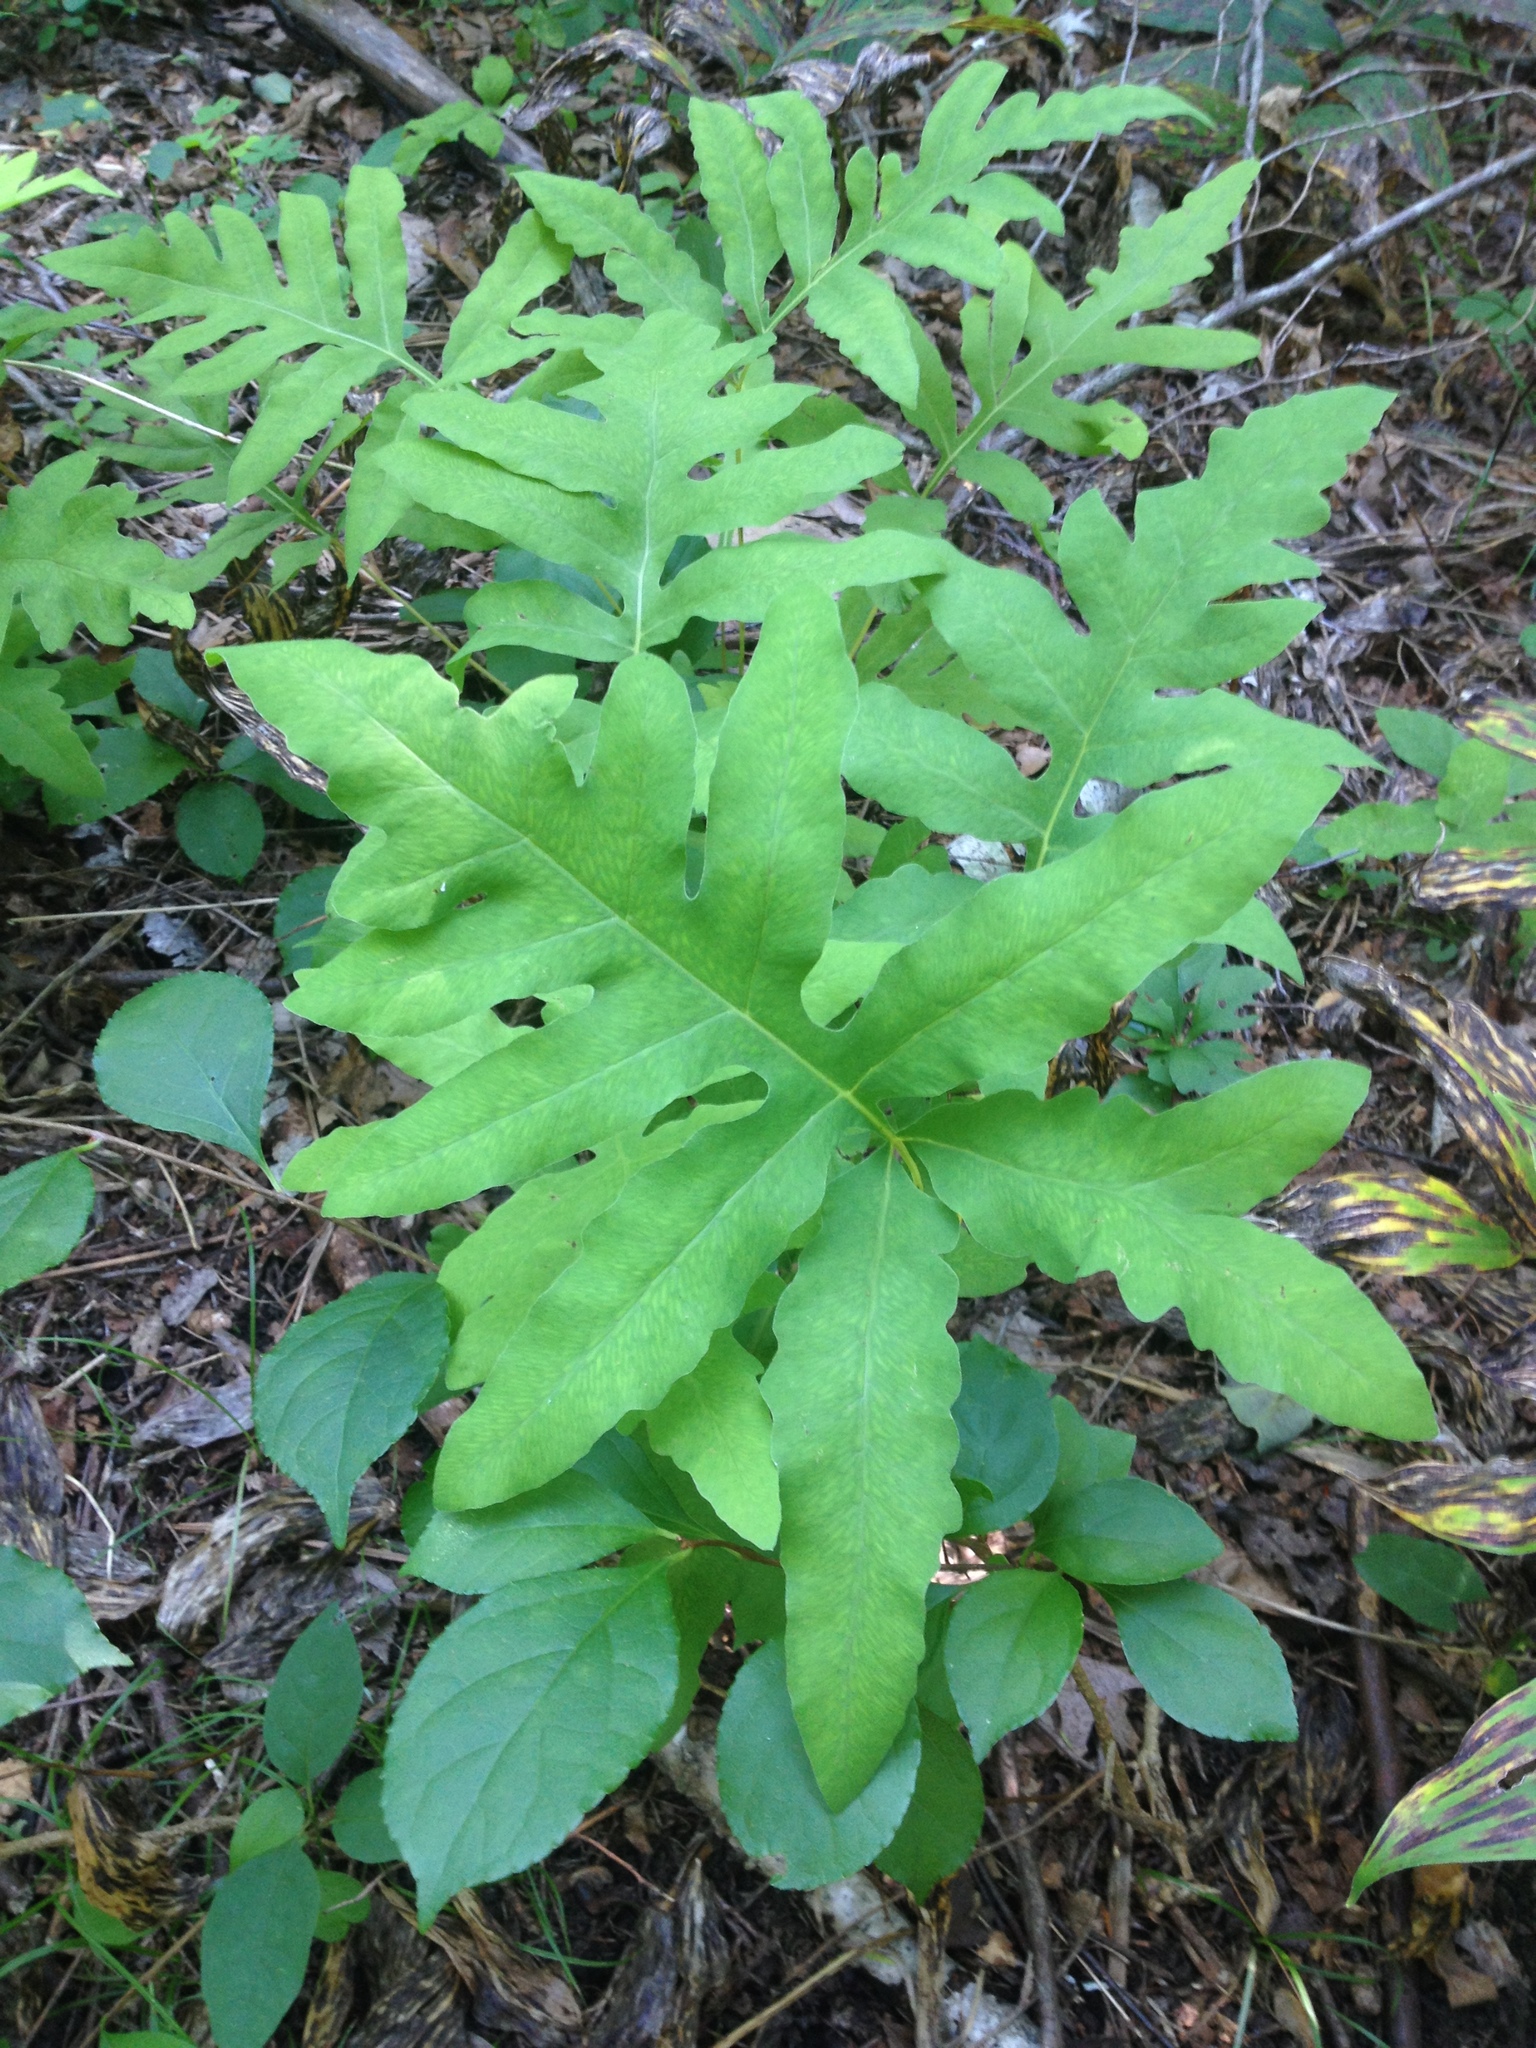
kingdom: Plantae
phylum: Tracheophyta
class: Polypodiopsida
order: Polypodiales
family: Onocleaceae
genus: Onoclea
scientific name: Onoclea sensibilis
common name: Sensitive fern
